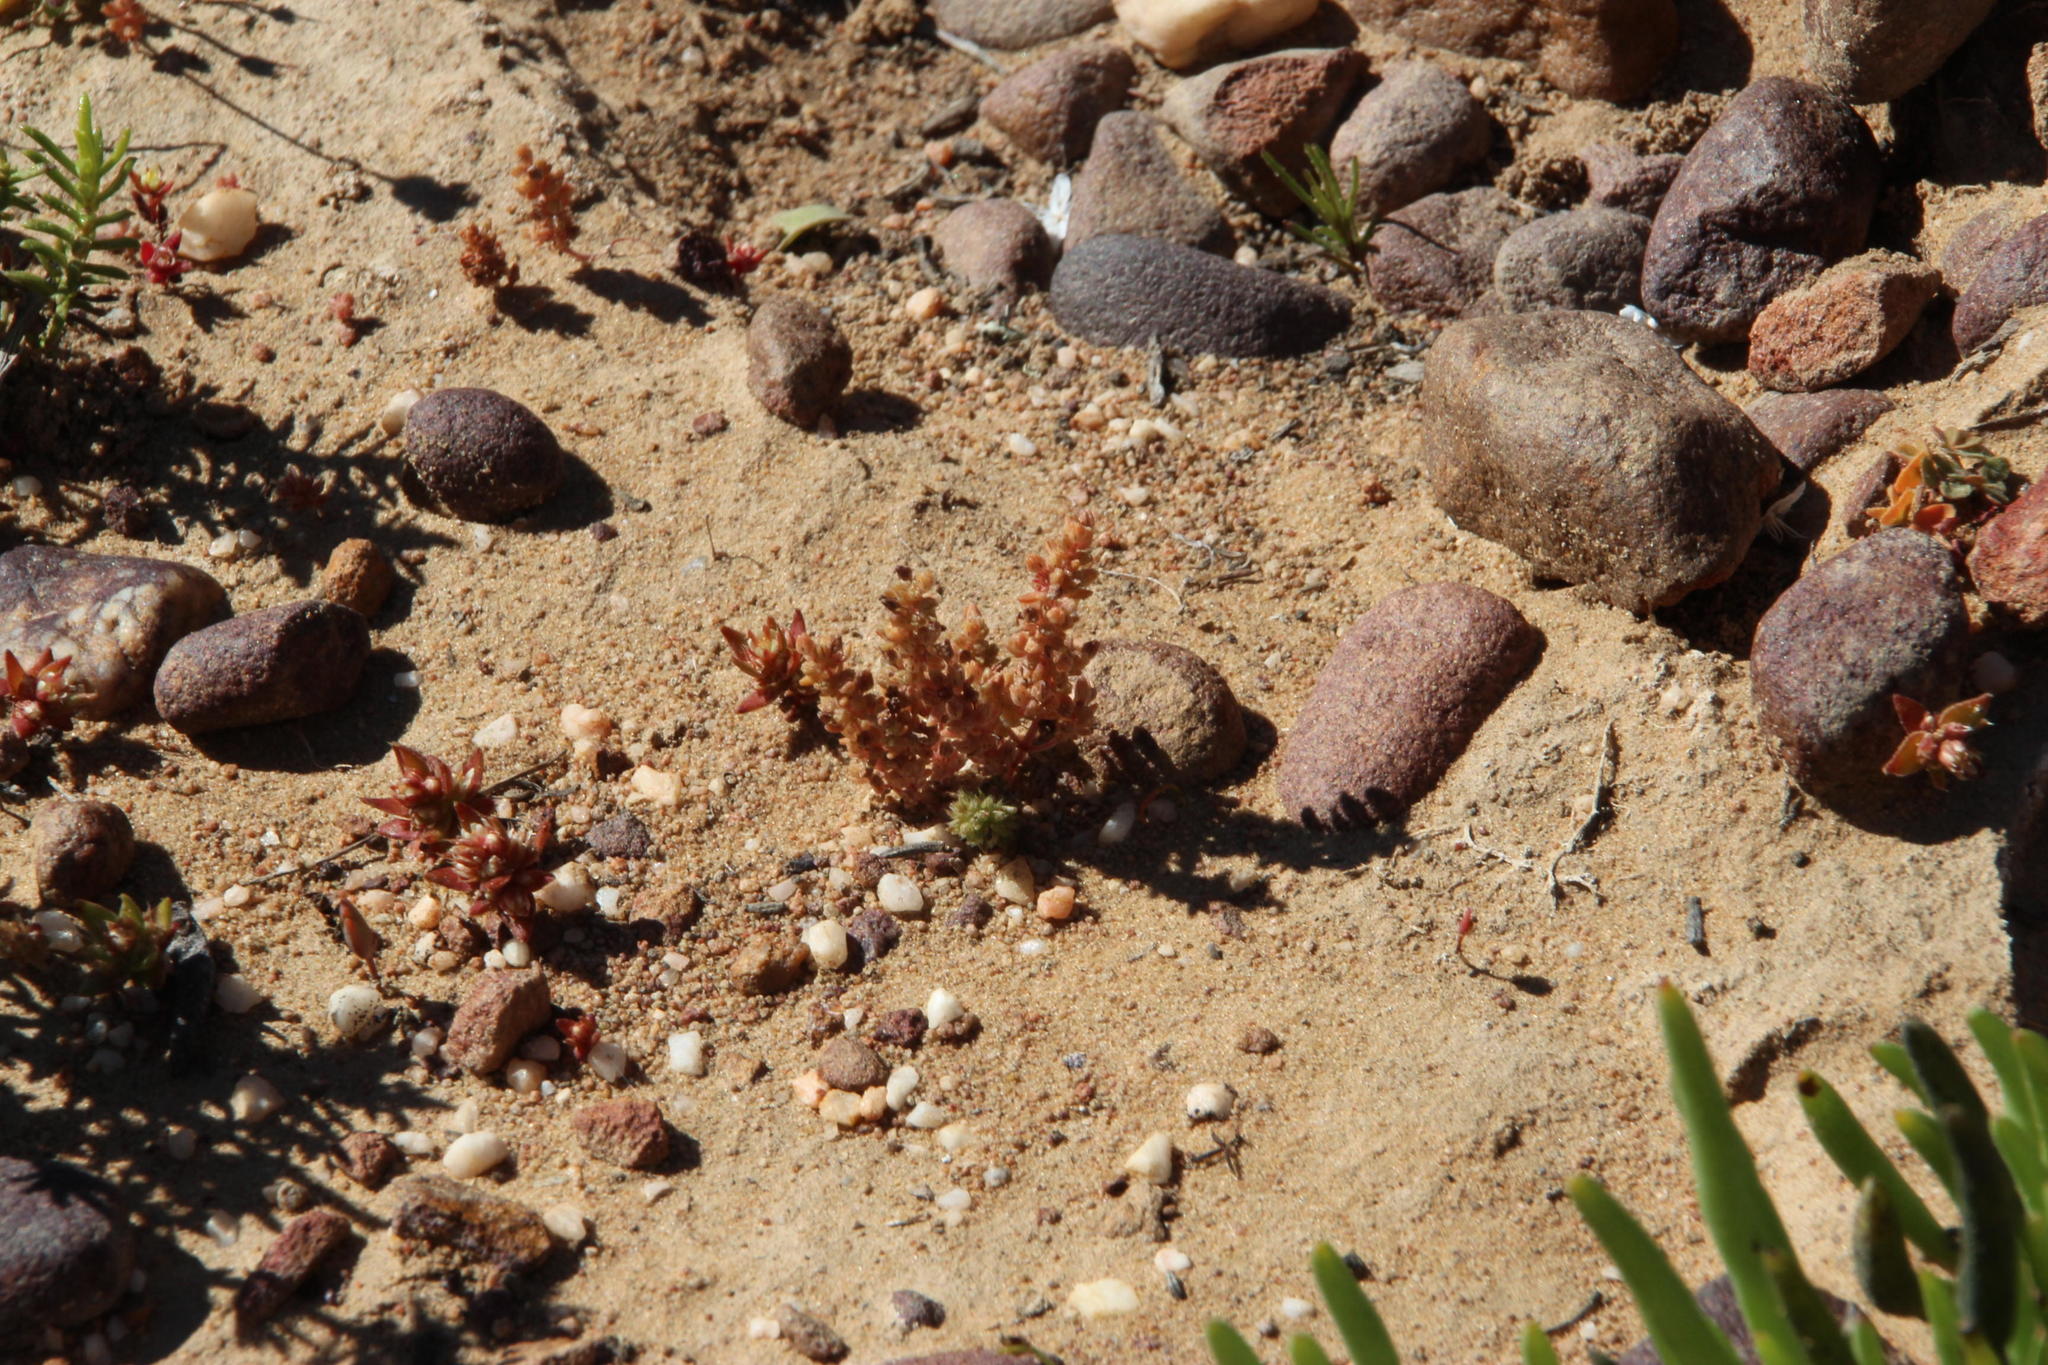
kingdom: Plantae
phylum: Tracheophyta
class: Magnoliopsida
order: Saxifragales
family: Crassulaceae
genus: Crassula
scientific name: Crassula thunbergiana
